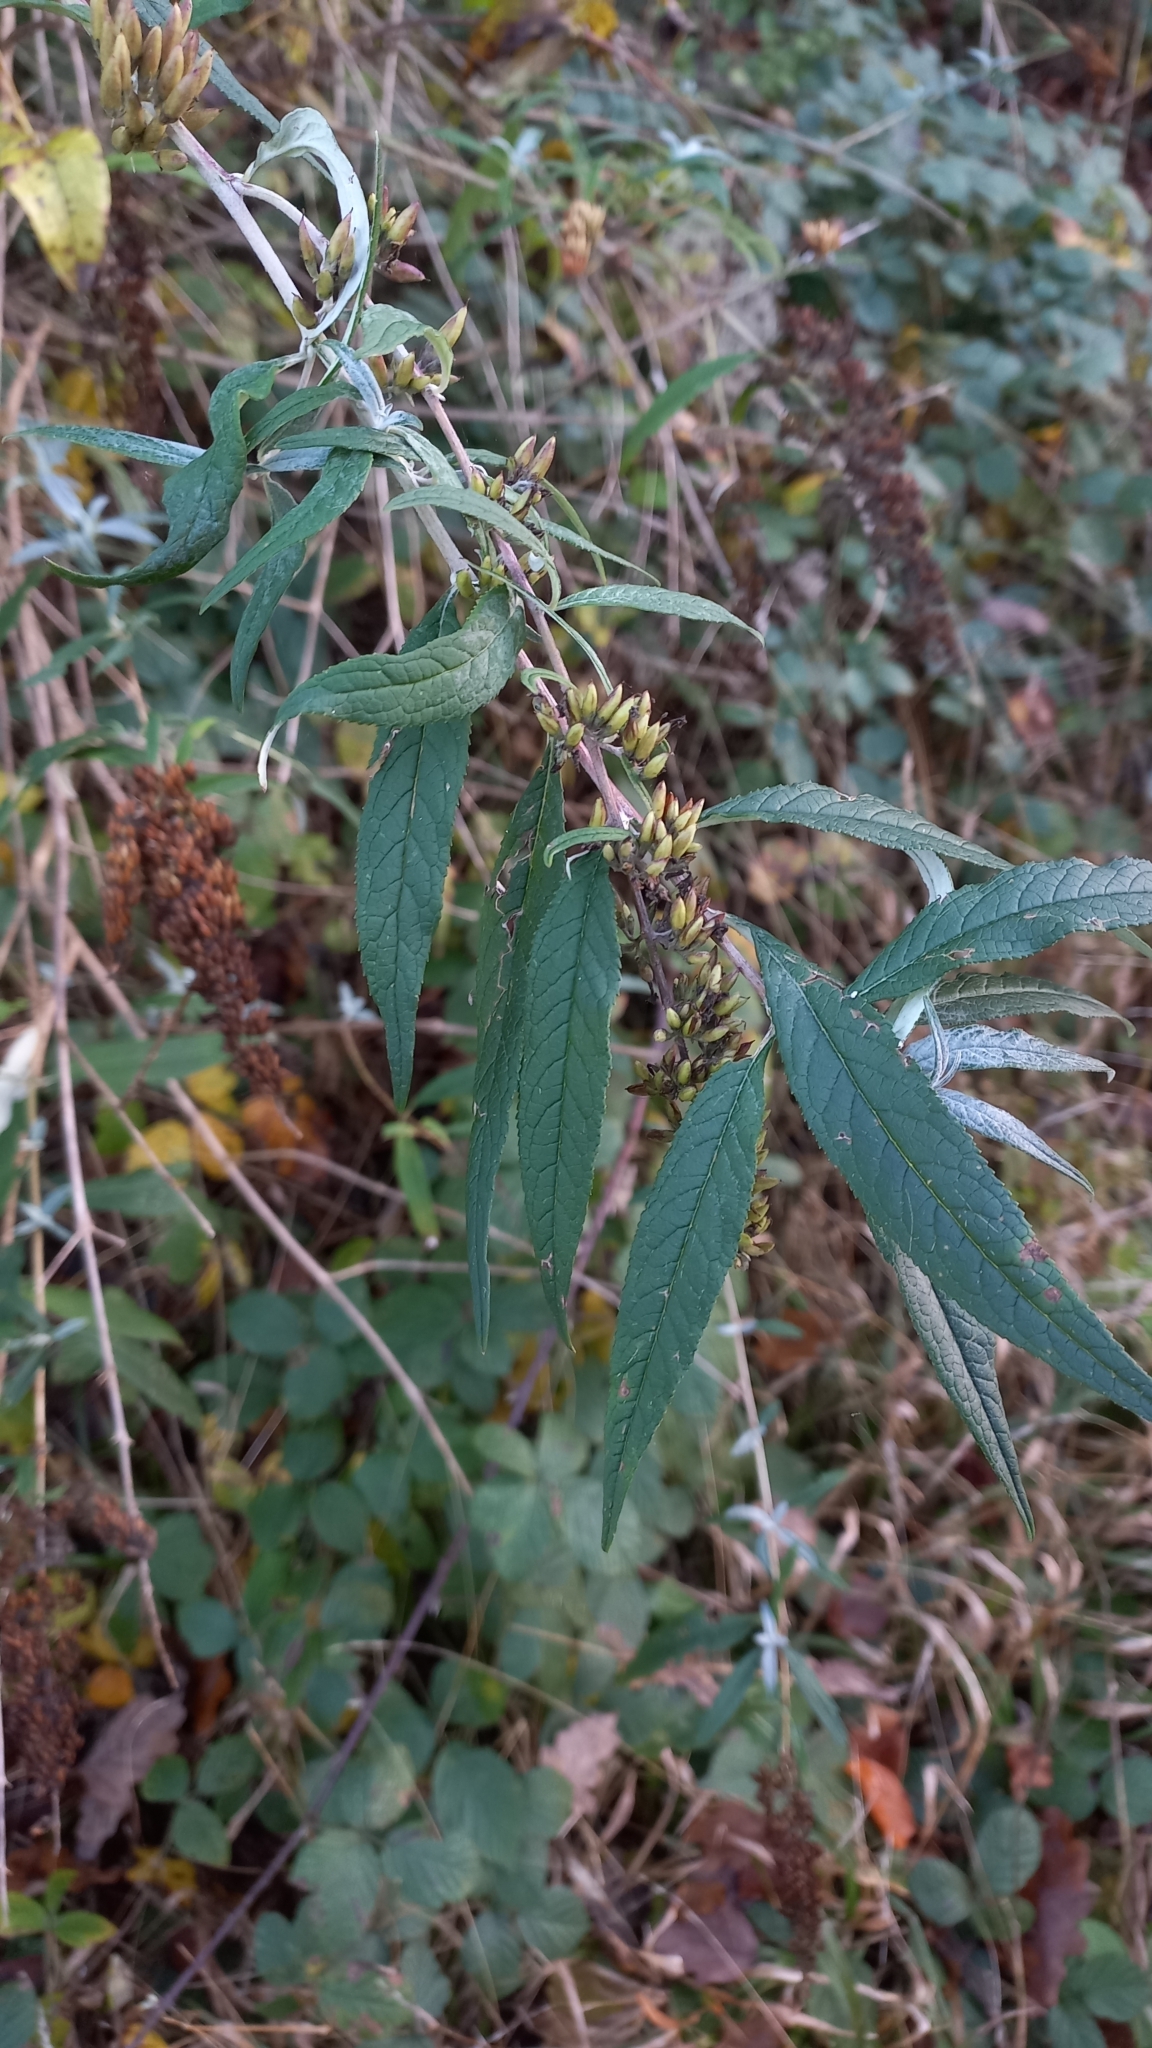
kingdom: Plantae
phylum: Tracheophyta
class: Magnoliopsida
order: Lamiales
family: Scrophulariaceae
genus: Buddleja
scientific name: Buddleja davidii
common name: Butterfly-bush
